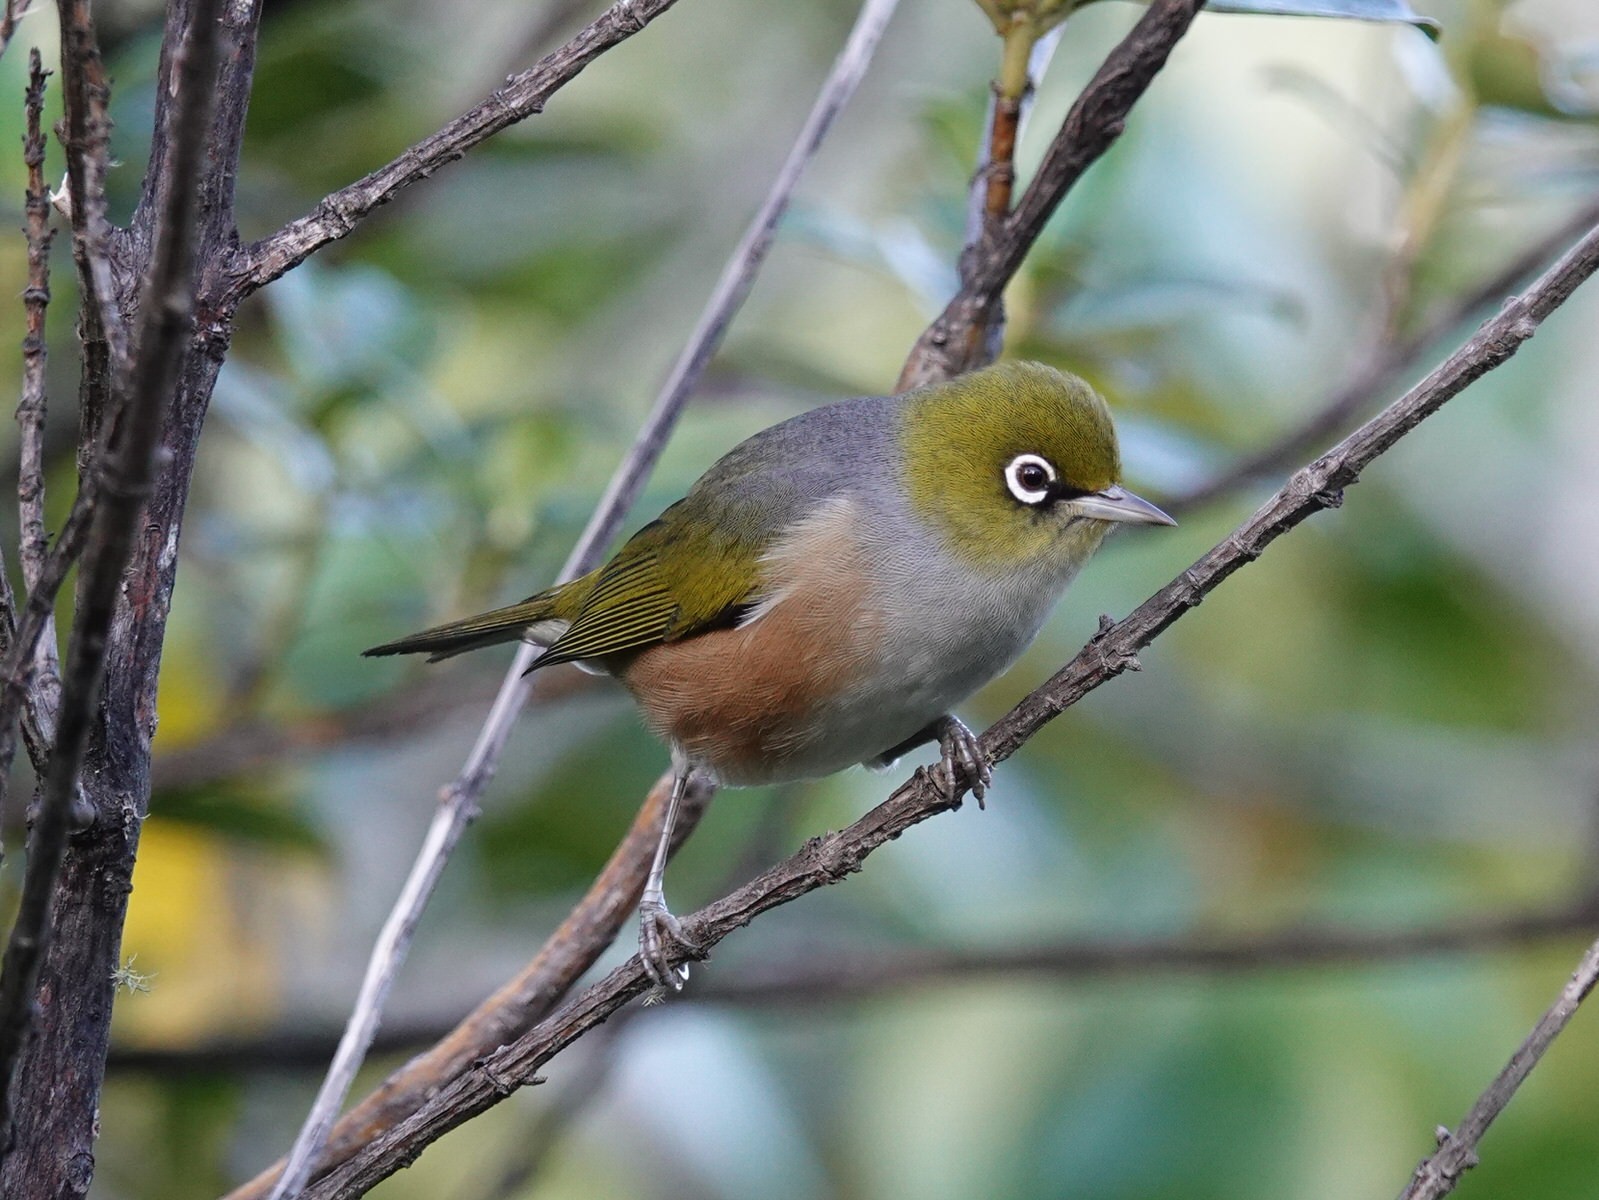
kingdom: Animalia
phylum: Chordata
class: Aves
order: Passeriformes
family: Zosteropidae
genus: Zosterops
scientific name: Zosterops lateralis
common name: Silvereye
